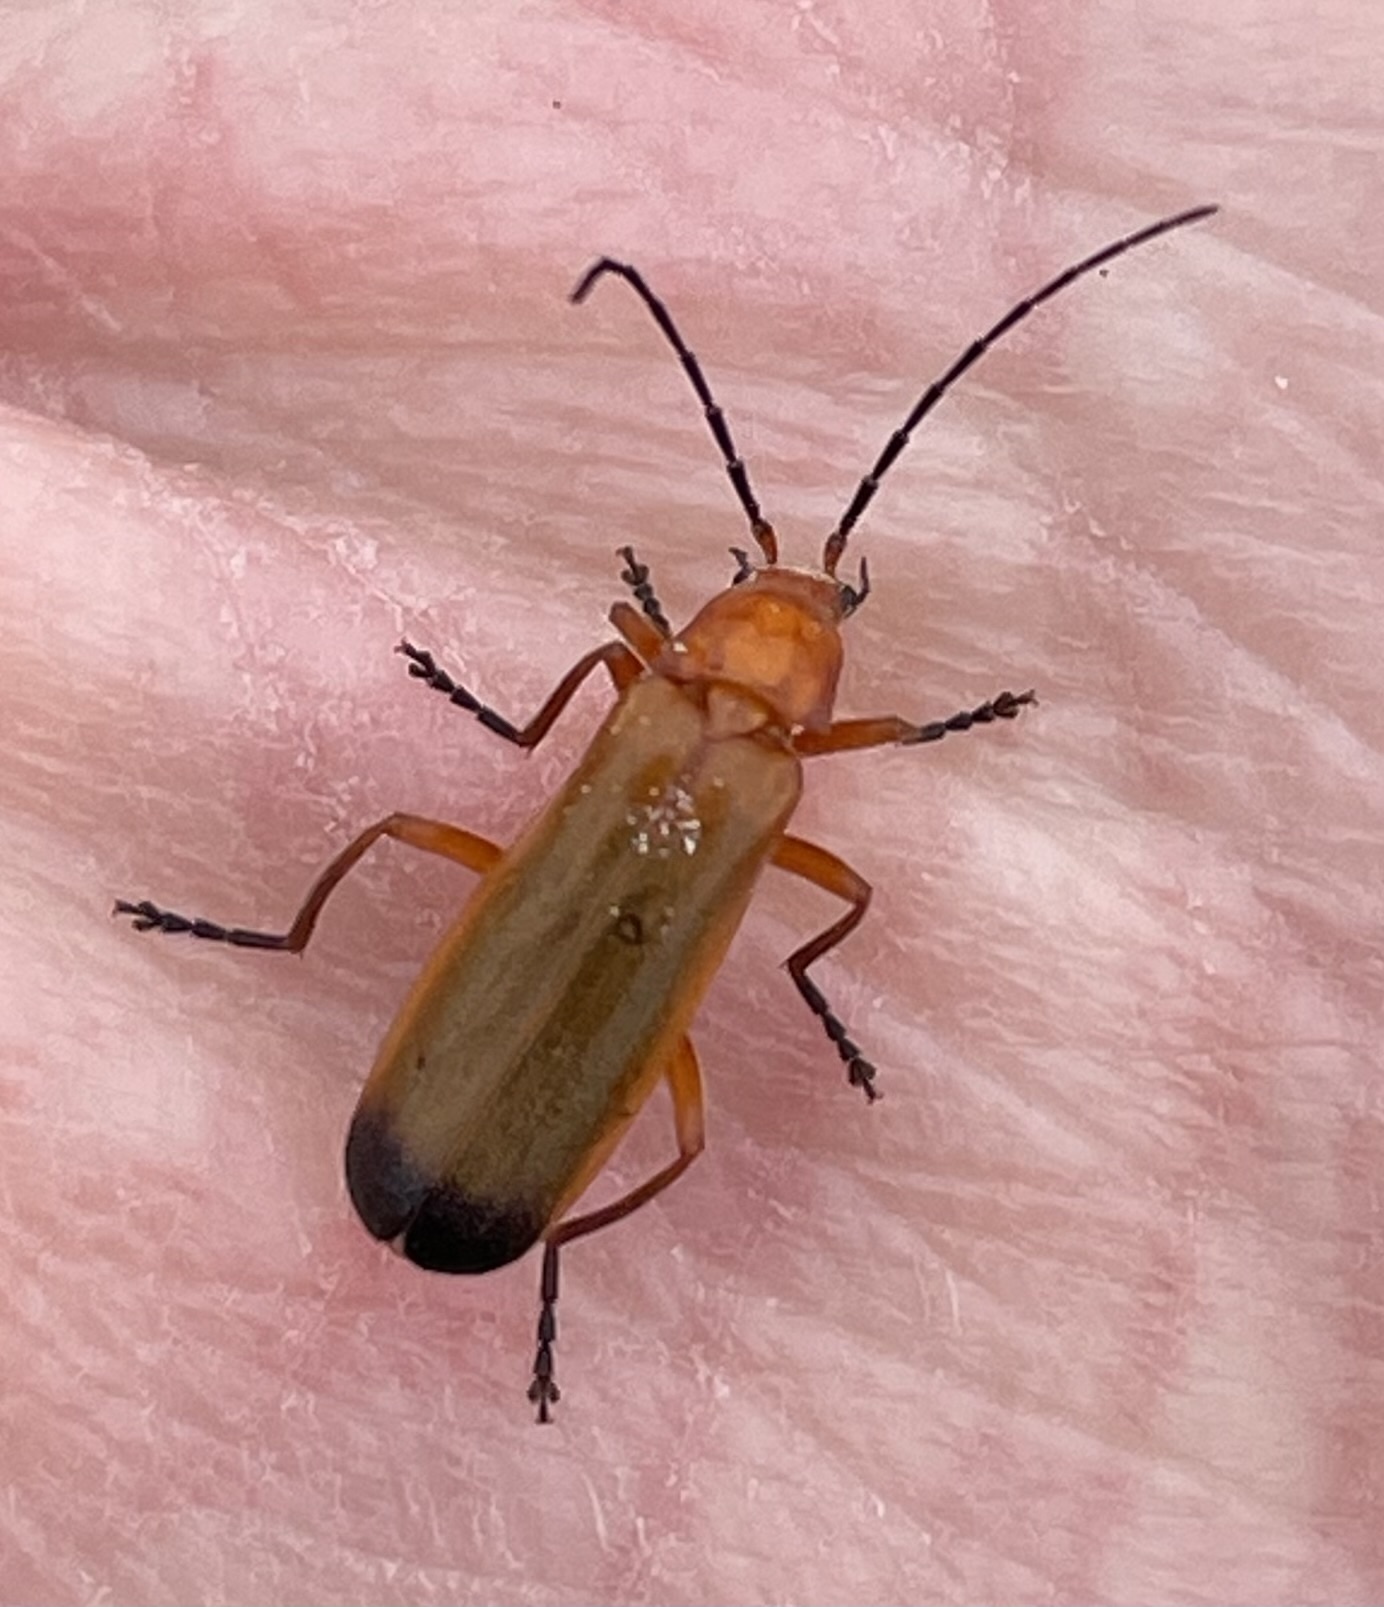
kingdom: Animalia
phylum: Arthropoda
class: Insecta
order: Coleoptera
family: Cantharidae
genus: Rhagonycha
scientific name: Rhagonycha fulva
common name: Common red soldier beetle
